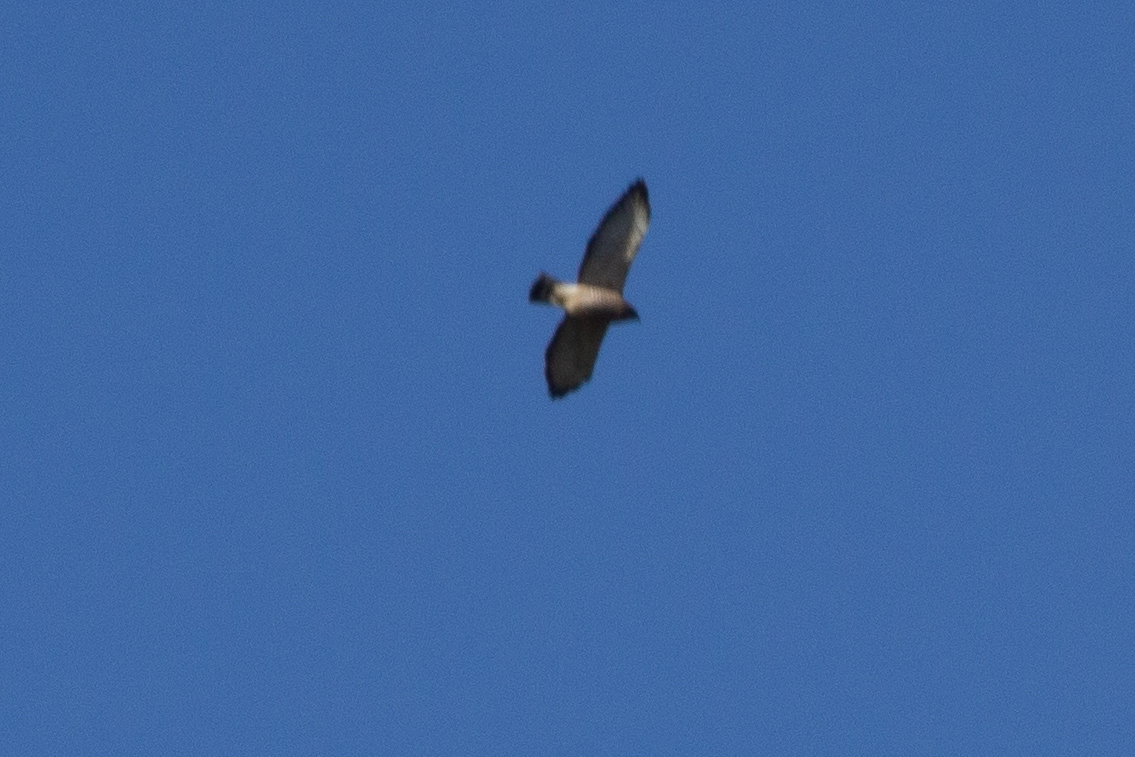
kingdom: Animalia
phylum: Chordata
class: Aves
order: Accipitriformes
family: Accipitridae
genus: Buteo
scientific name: Buteo platypterus
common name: Broad-winged hawk
